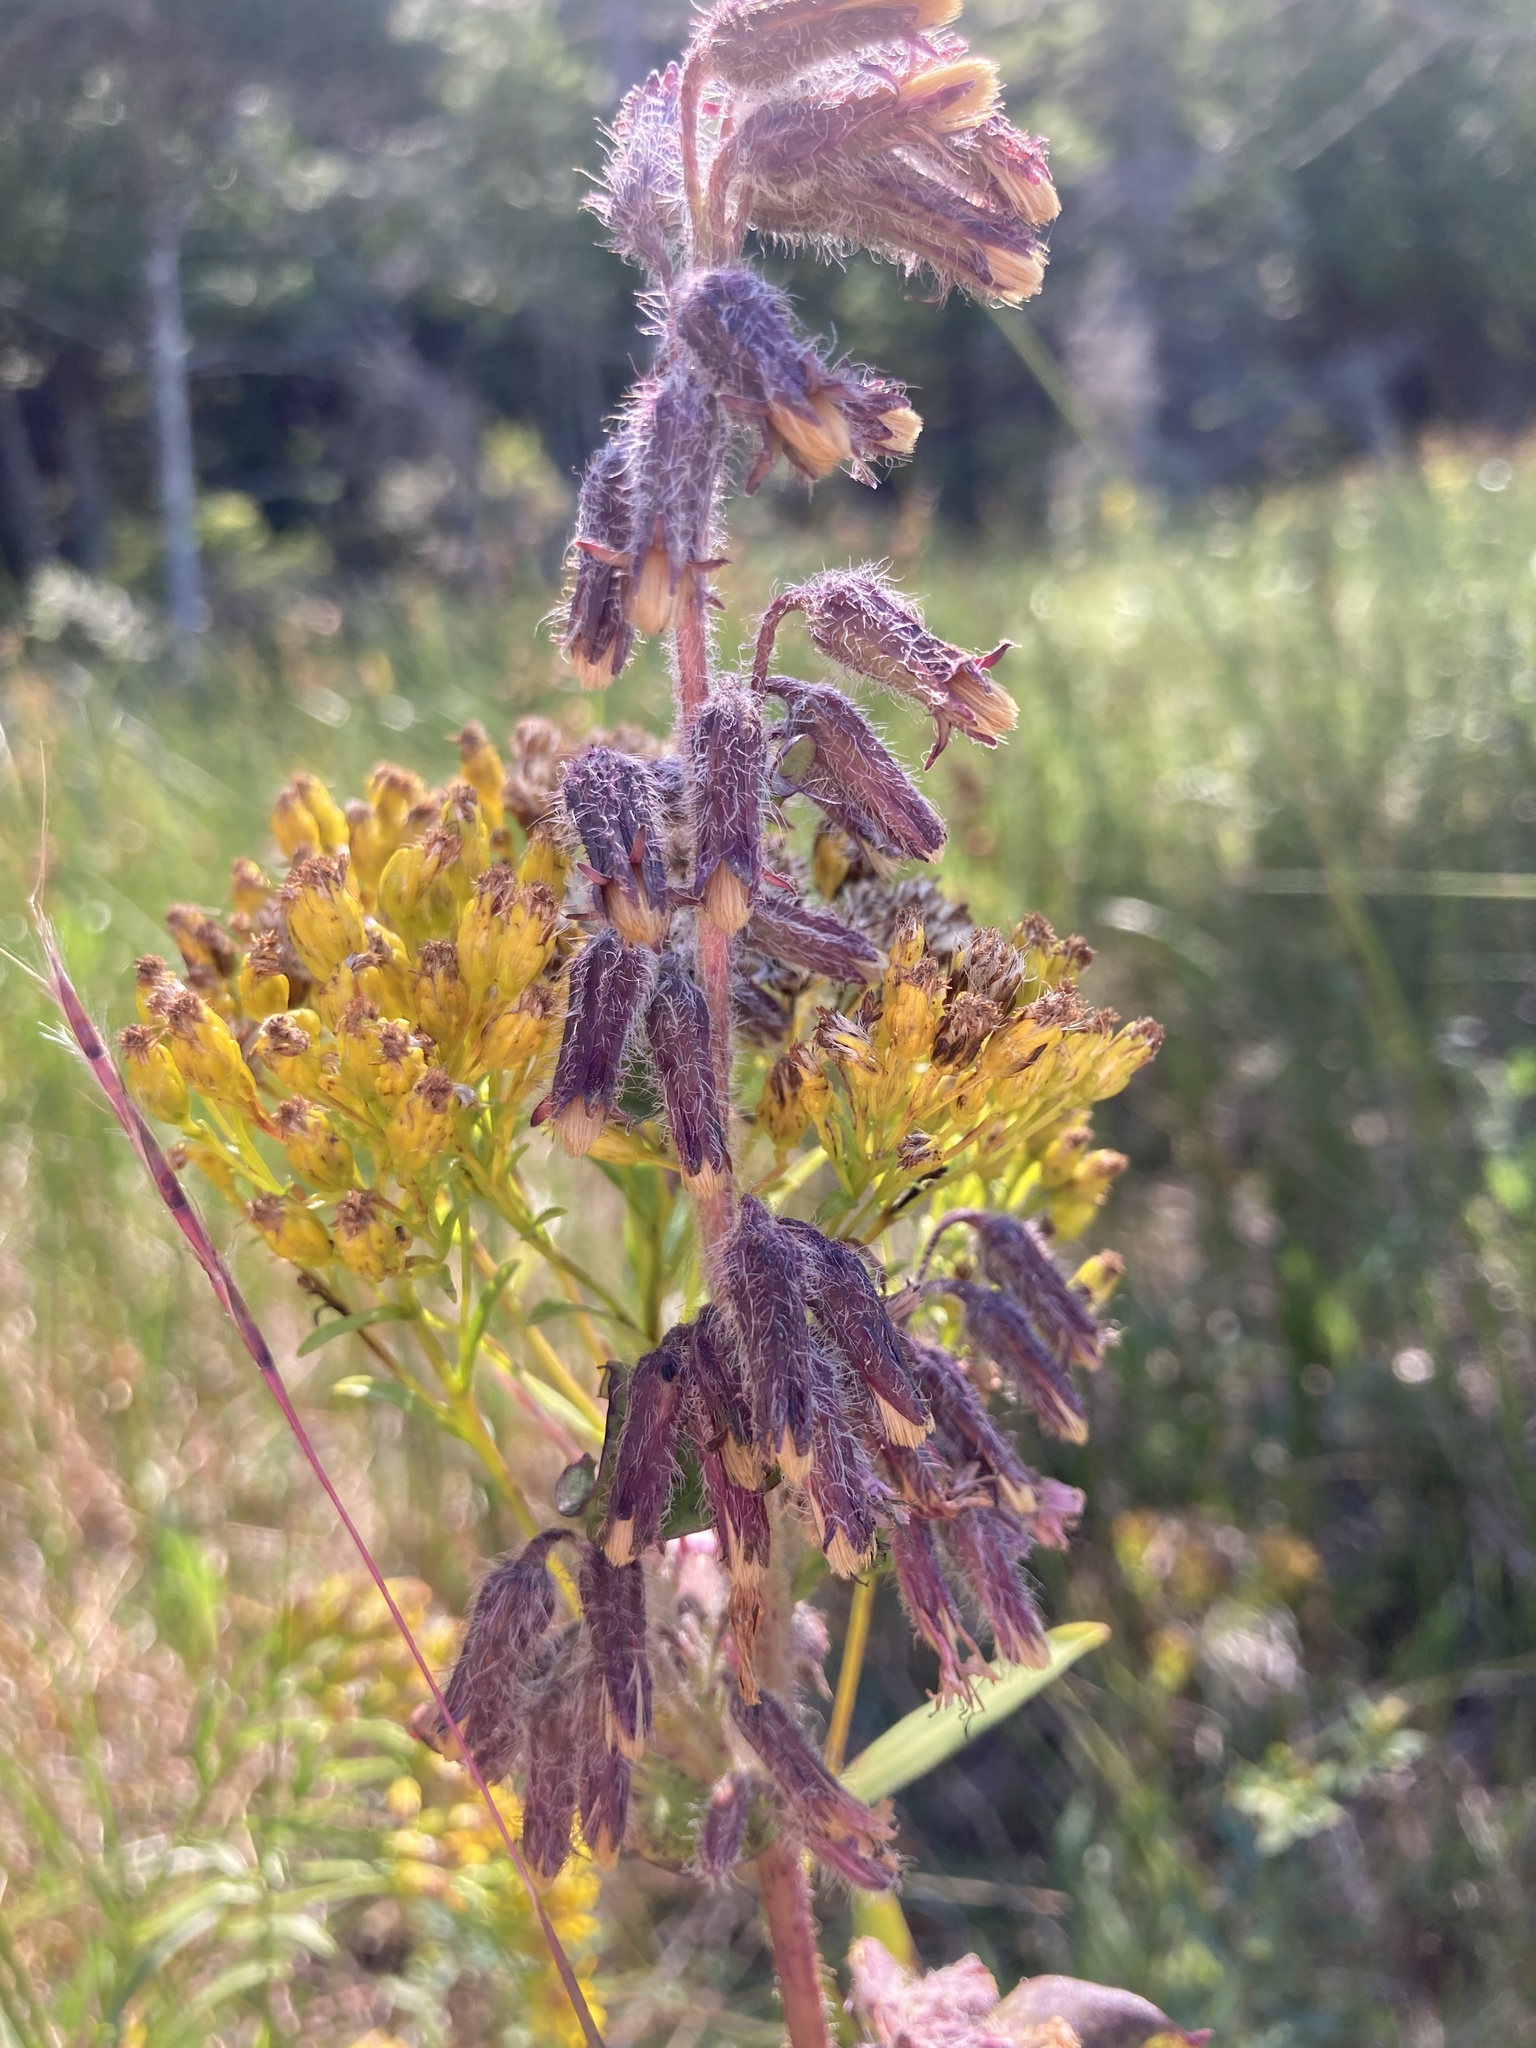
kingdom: Plantae
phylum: Tracheophyta
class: Magnoliopsida
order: Asterales
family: Asteraceae
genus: Nabalus
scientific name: Nabalus racemosus
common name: Glaucous white lettuce
